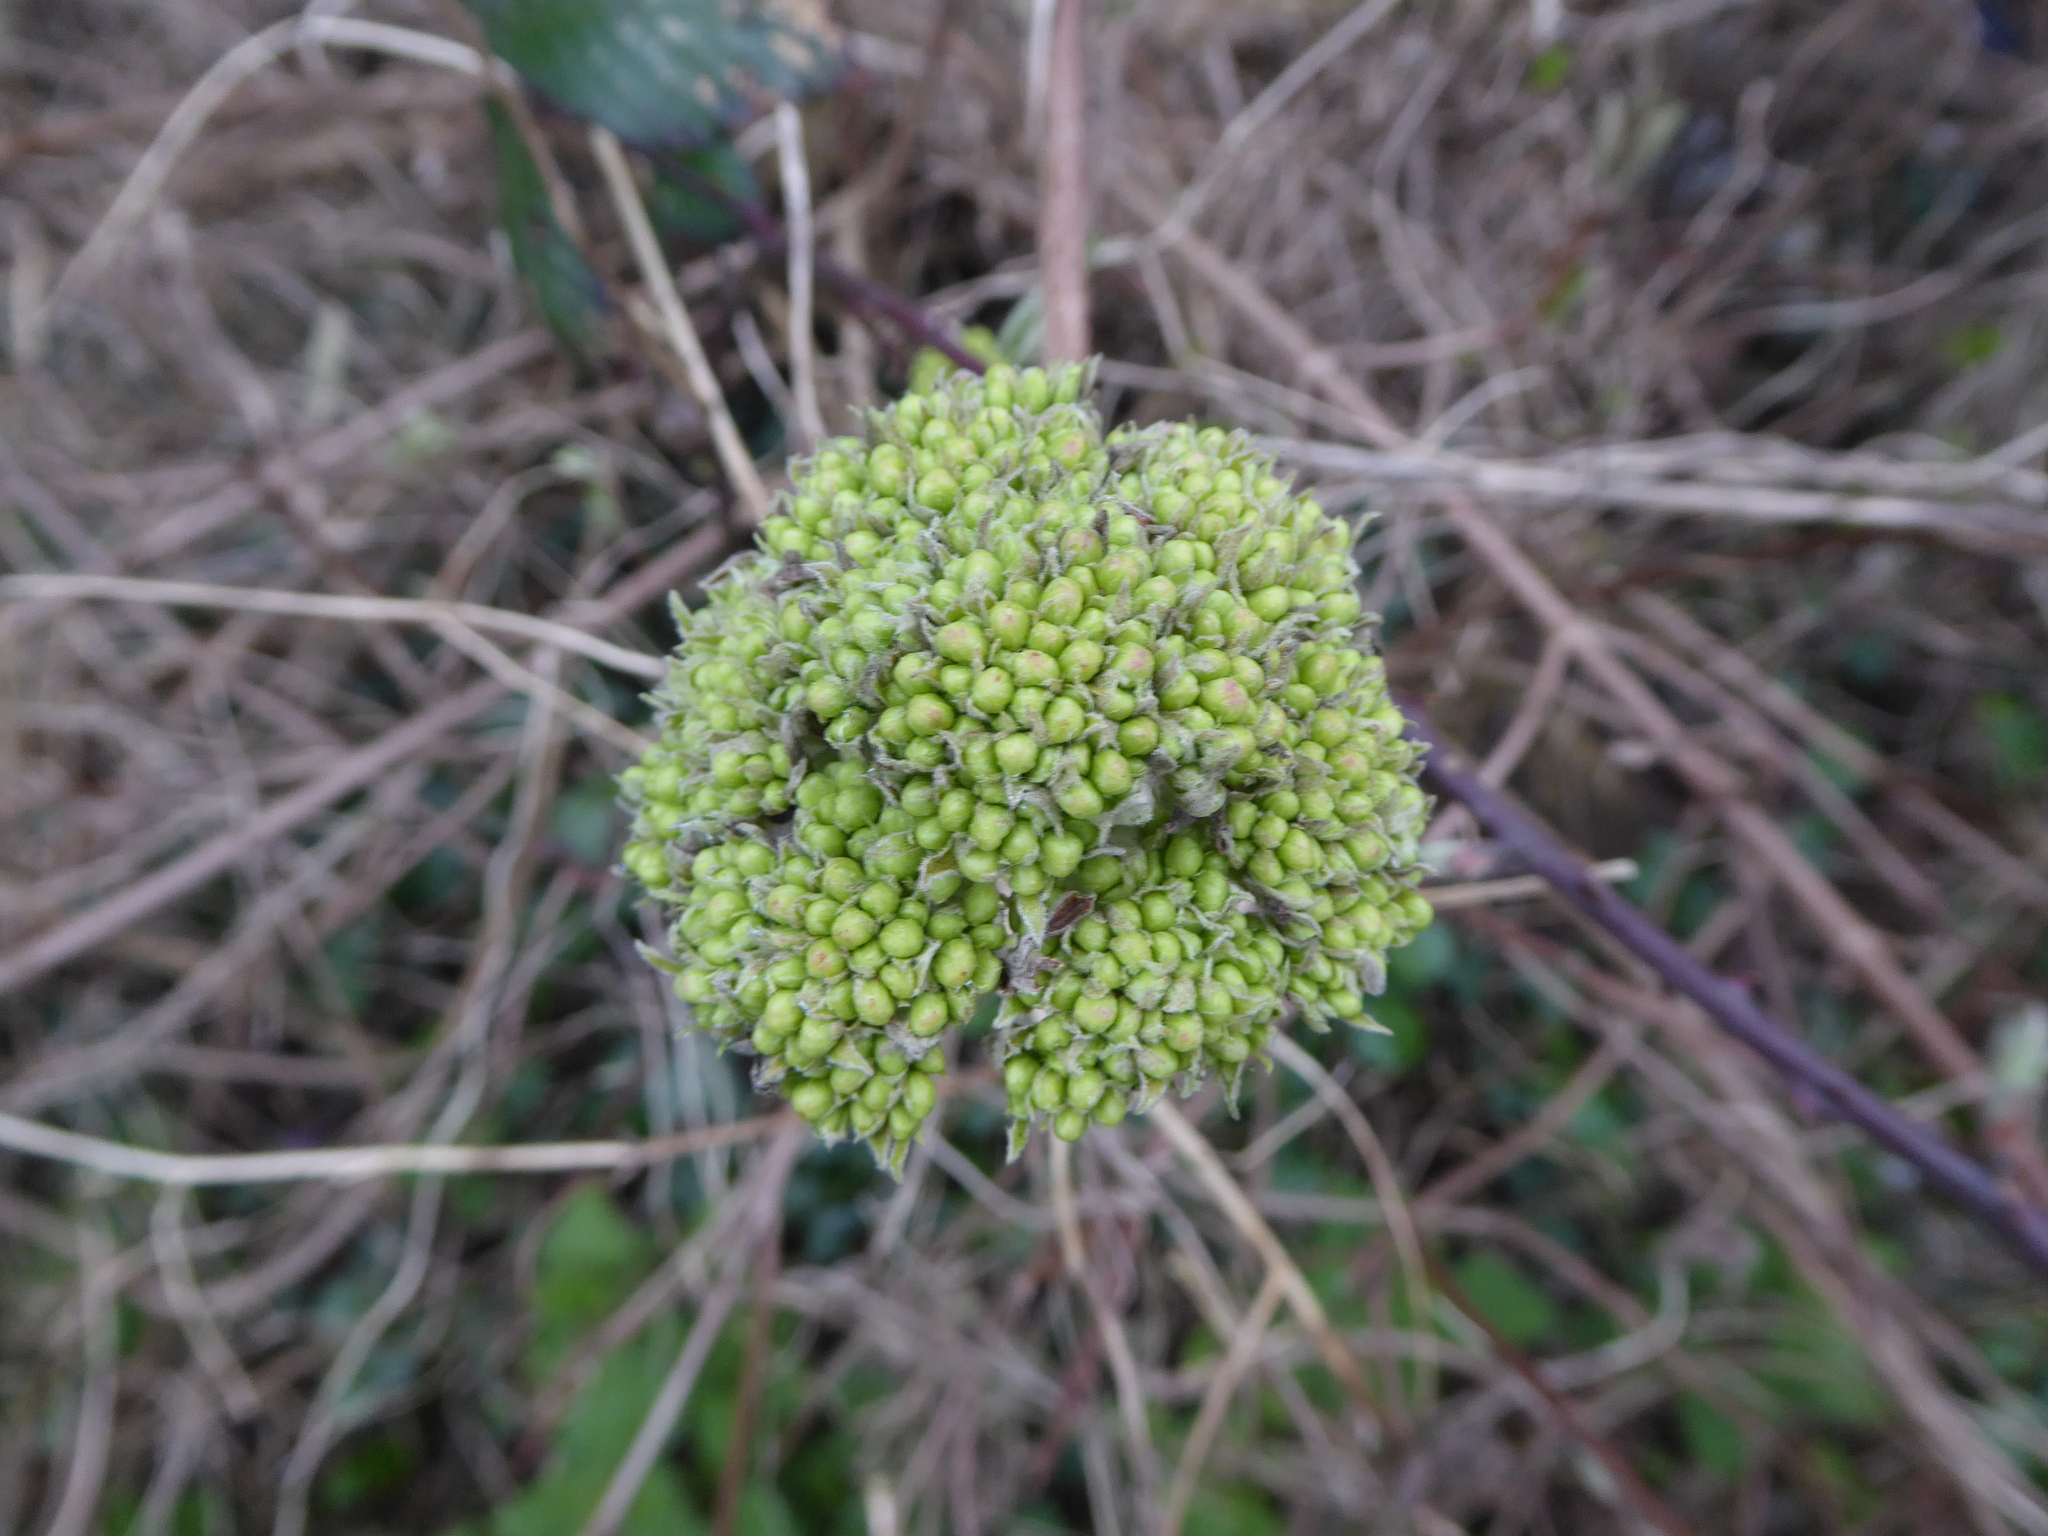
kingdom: Plantae
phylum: Tracheophyta
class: Magnoliopsida
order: Dipsacales
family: Viburnaceae
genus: Viburnum
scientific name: Viburnum lantana
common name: Wayfaring tree
